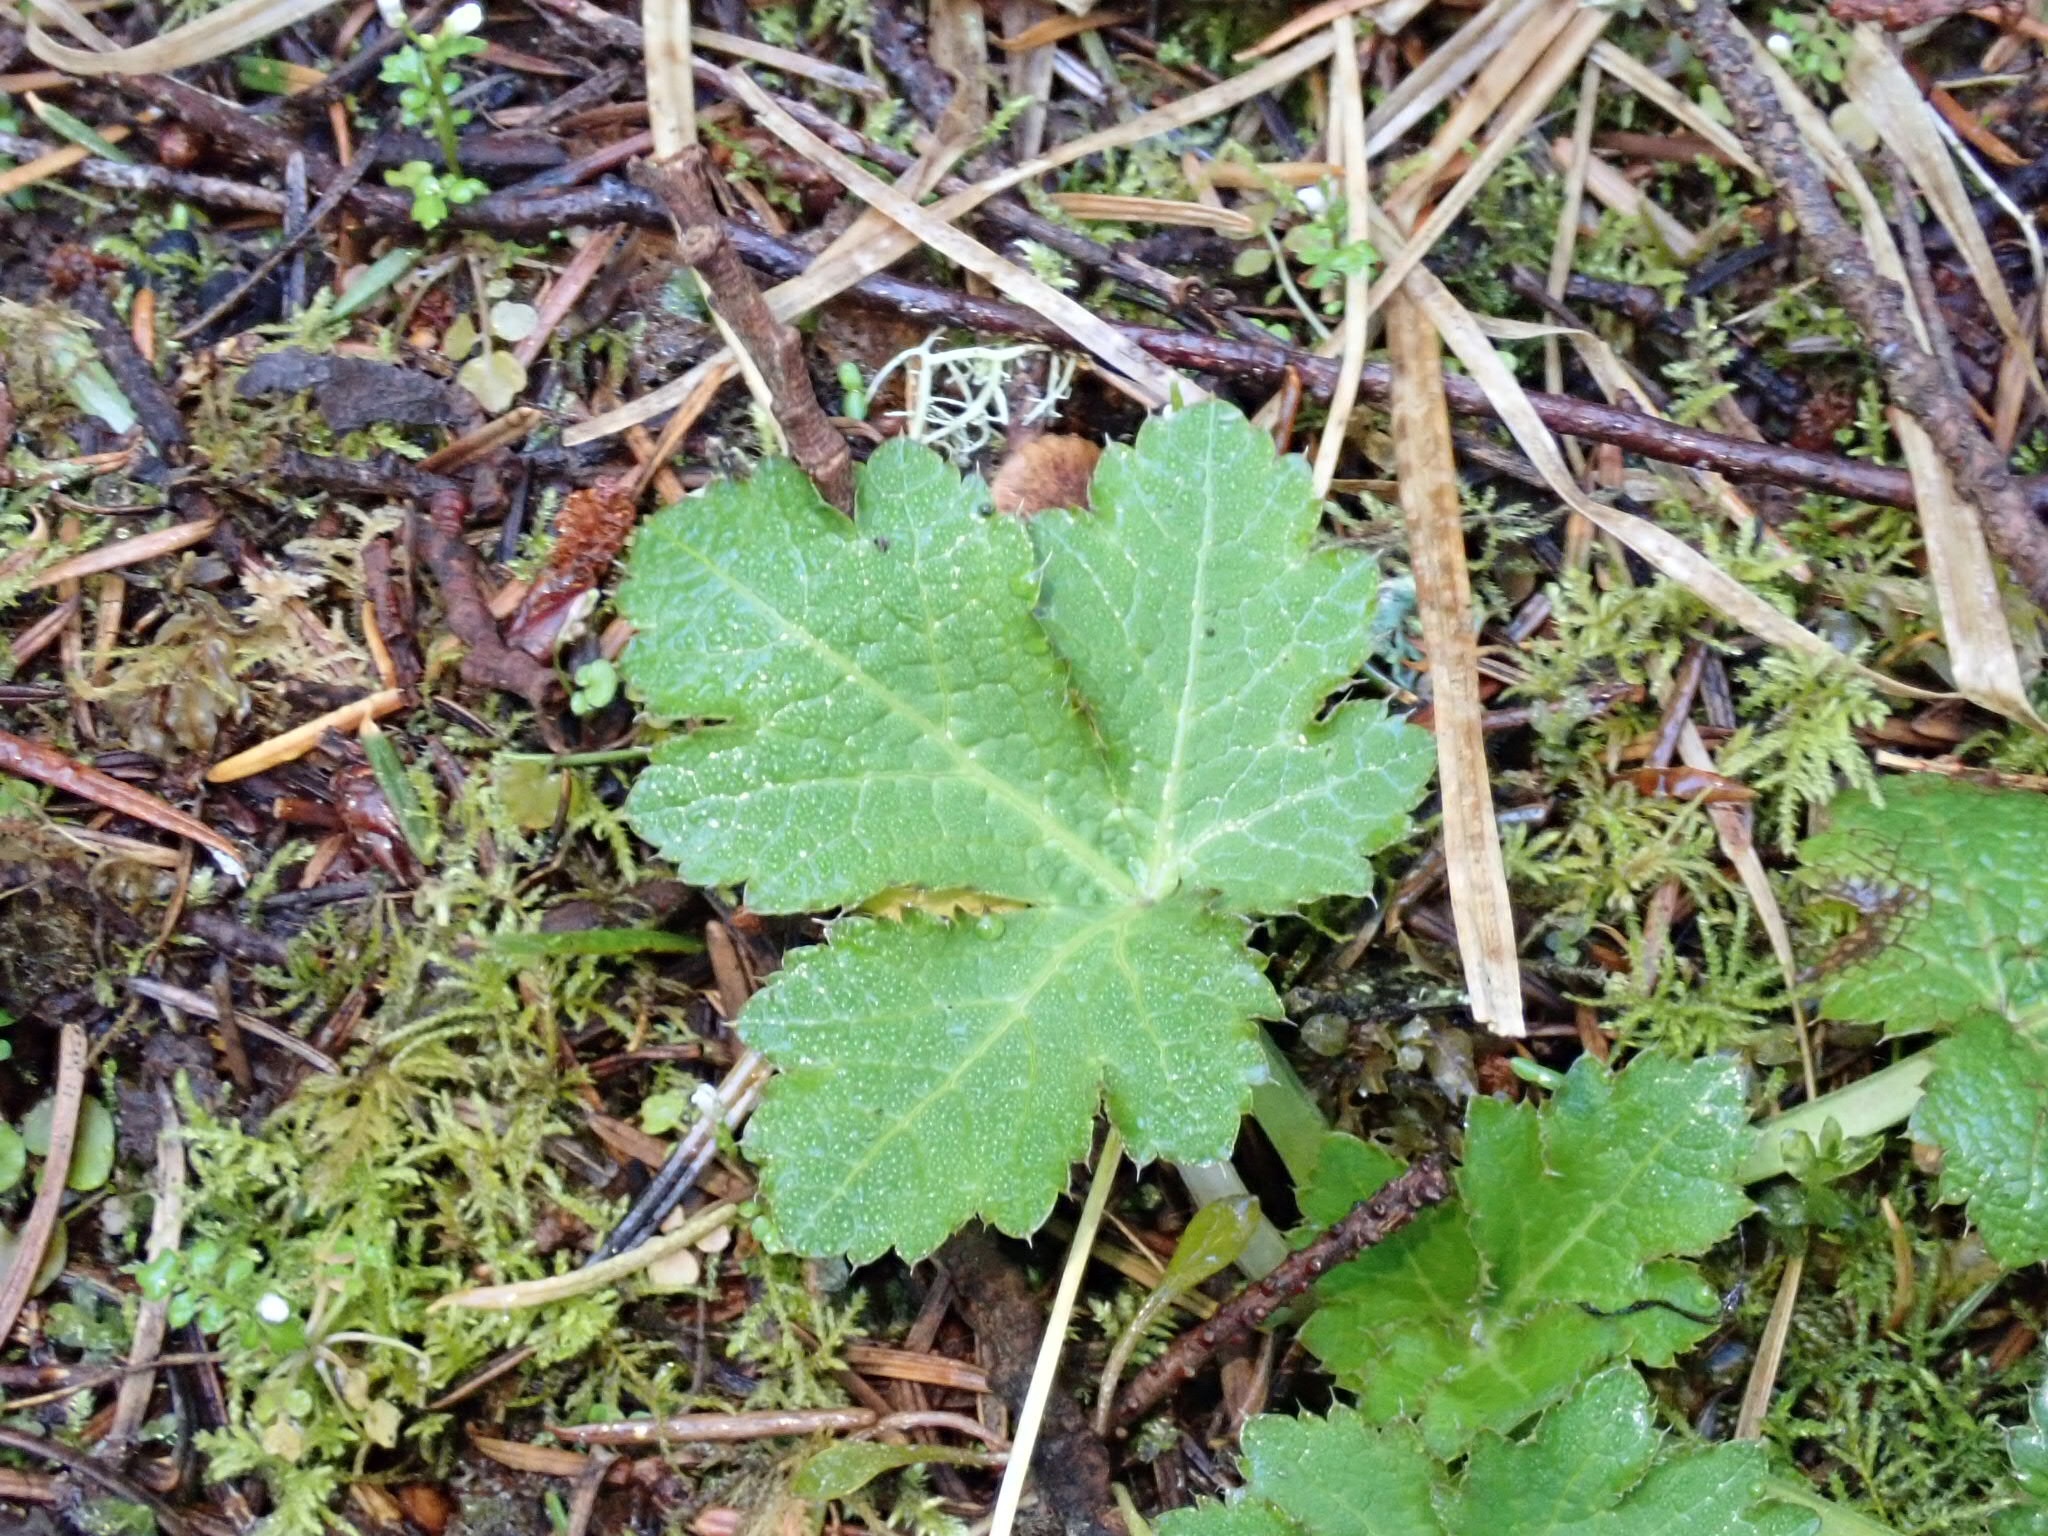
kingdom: Plantae
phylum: Tracheophyta
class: Magnoliopsida
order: Apiales
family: Apiaceae
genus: Sanicula
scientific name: Sanicula crassicaulis
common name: Western snakeroot
